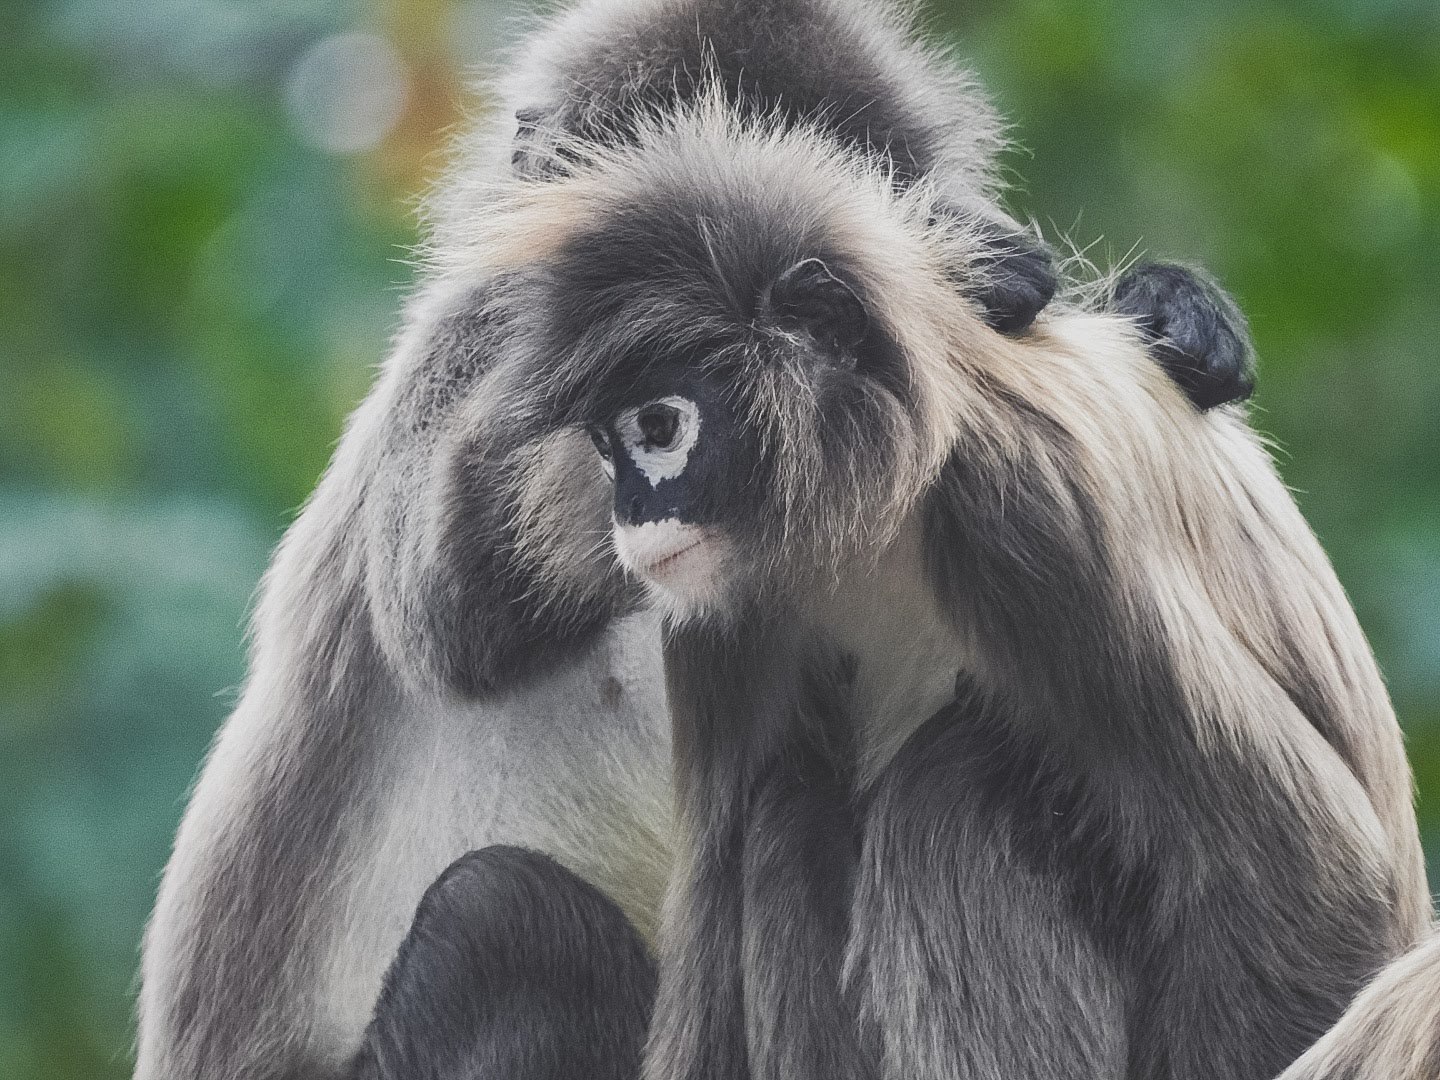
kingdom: Animalia
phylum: Chordata
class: Mammalia
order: Primates
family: Cercopithecidae
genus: Trachypithecus
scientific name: Trachypithecus phayrei
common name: Phayre's leaf monkey
